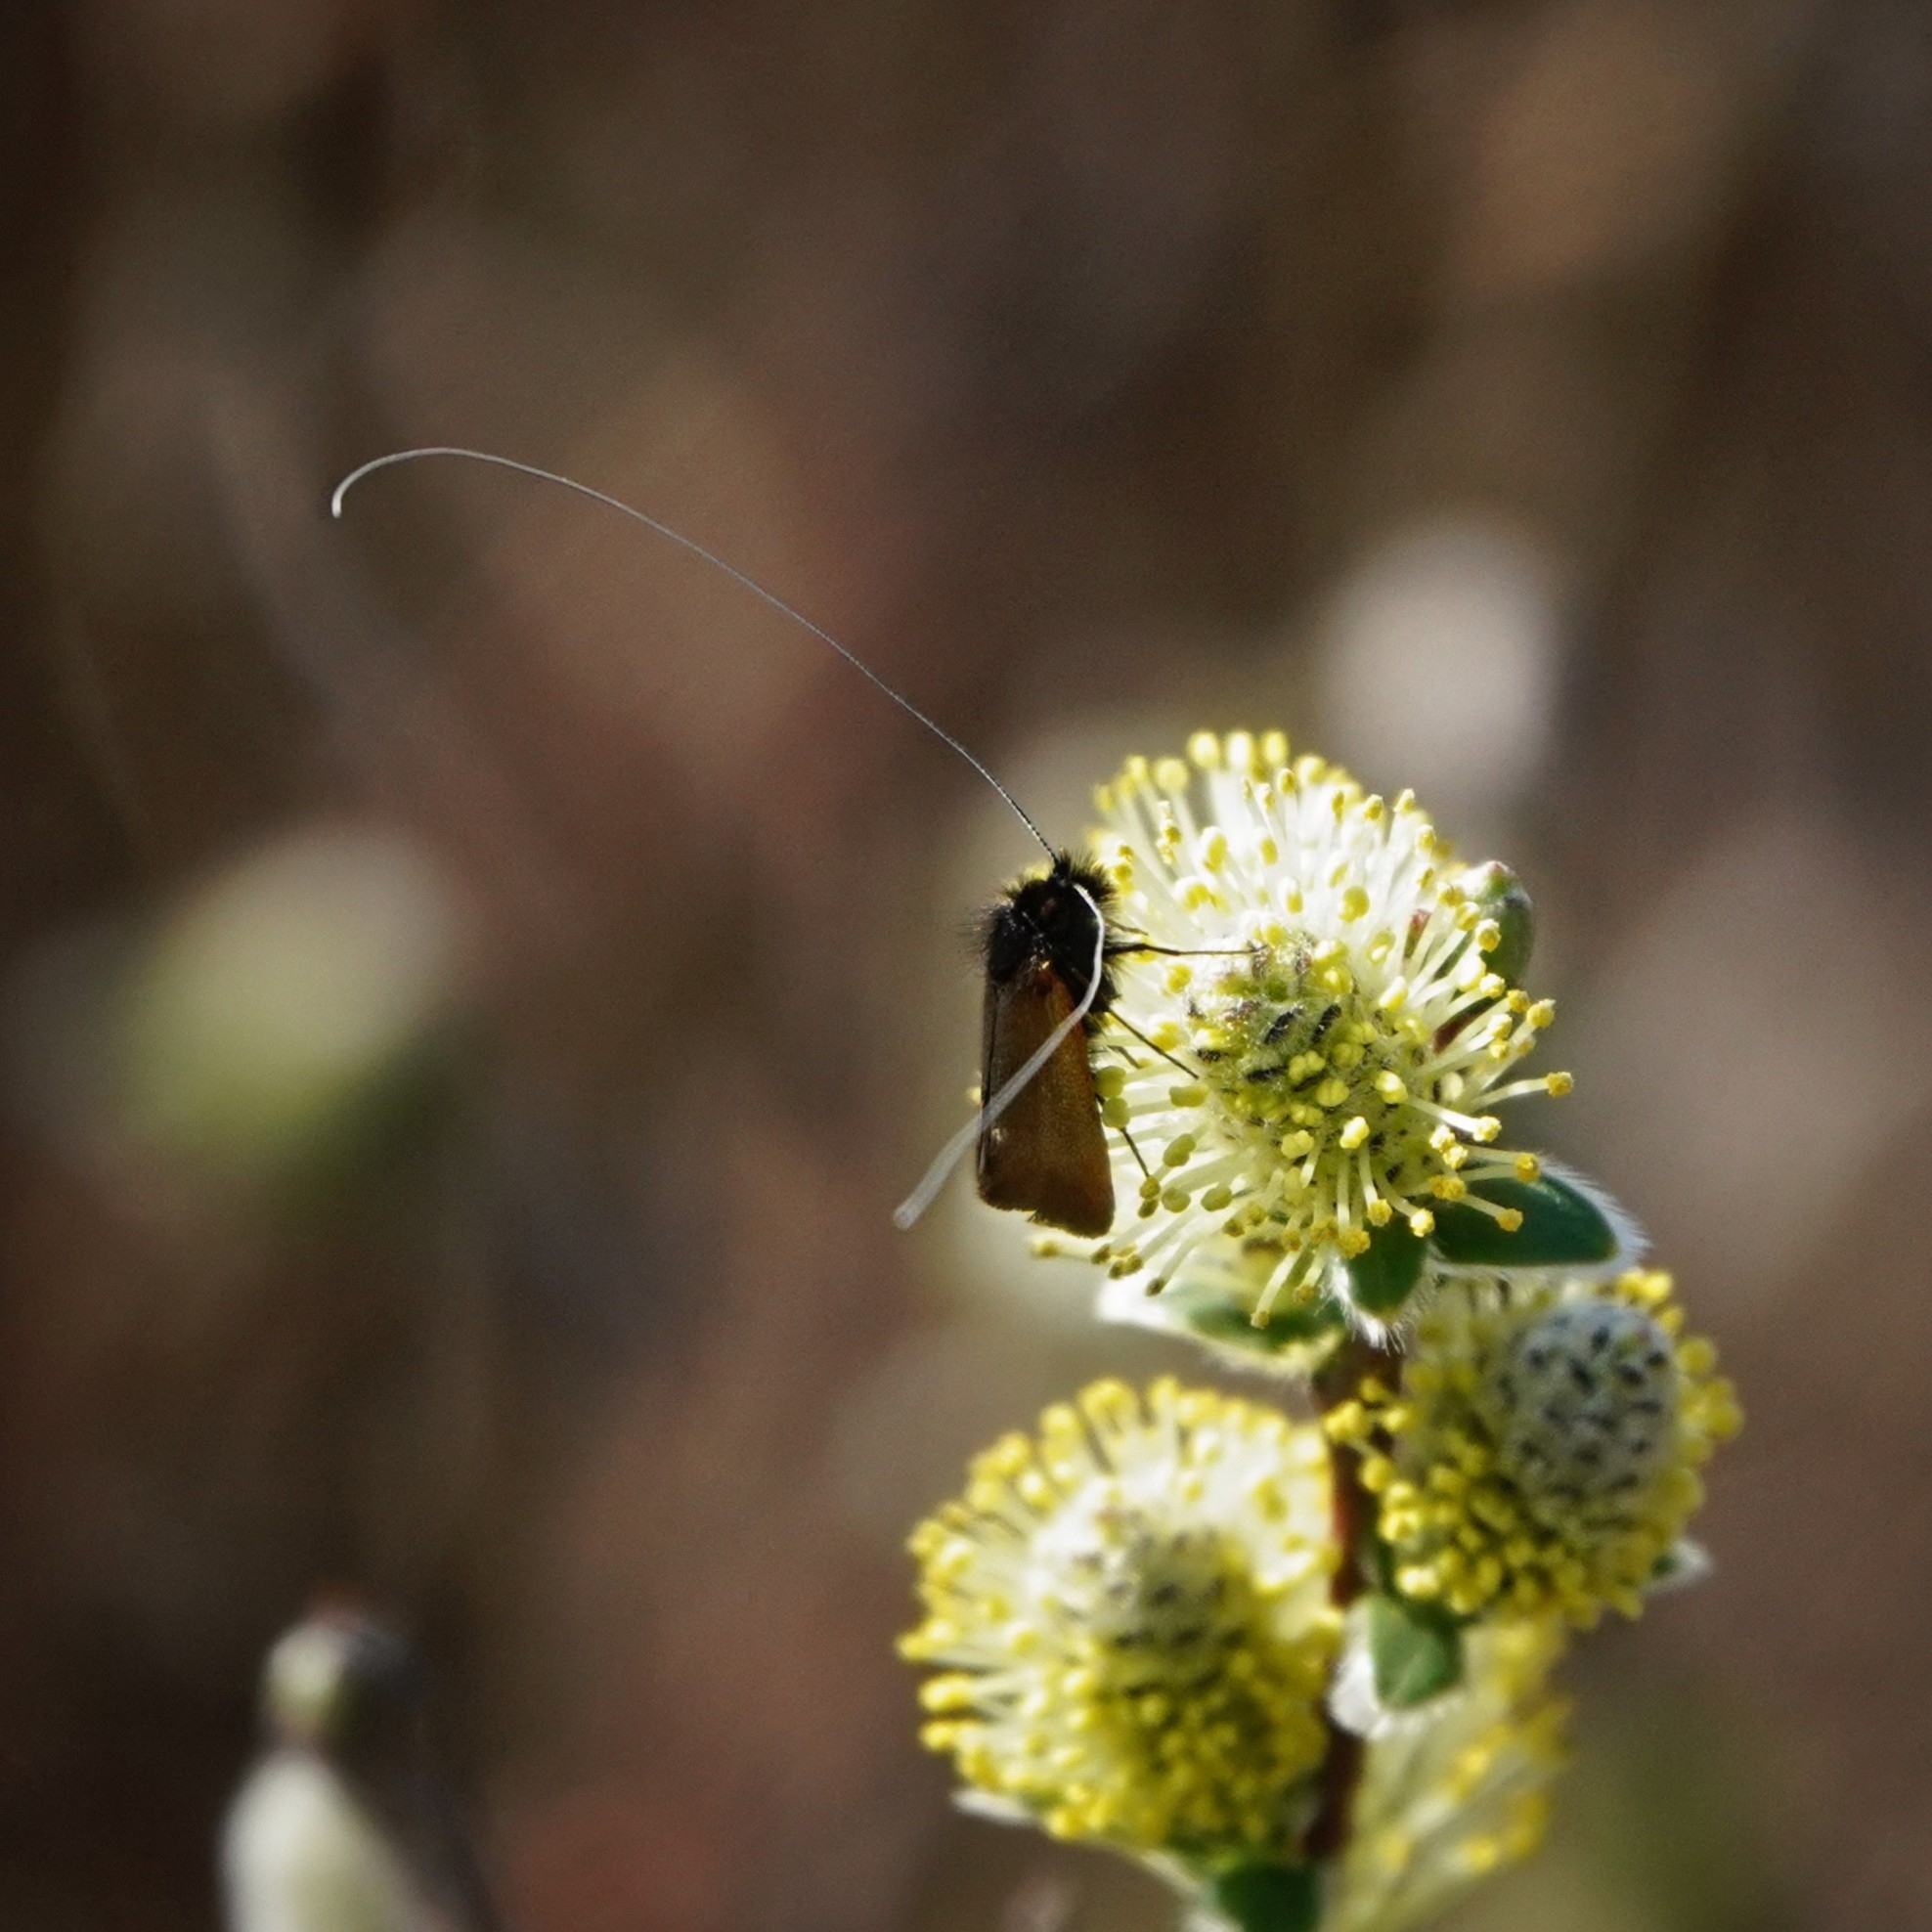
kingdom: Animalia
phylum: Arthropoda
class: Insecta
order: Lepidoptera
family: Adelidae
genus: Adela
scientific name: Adela cuprella
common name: Early long-horn
